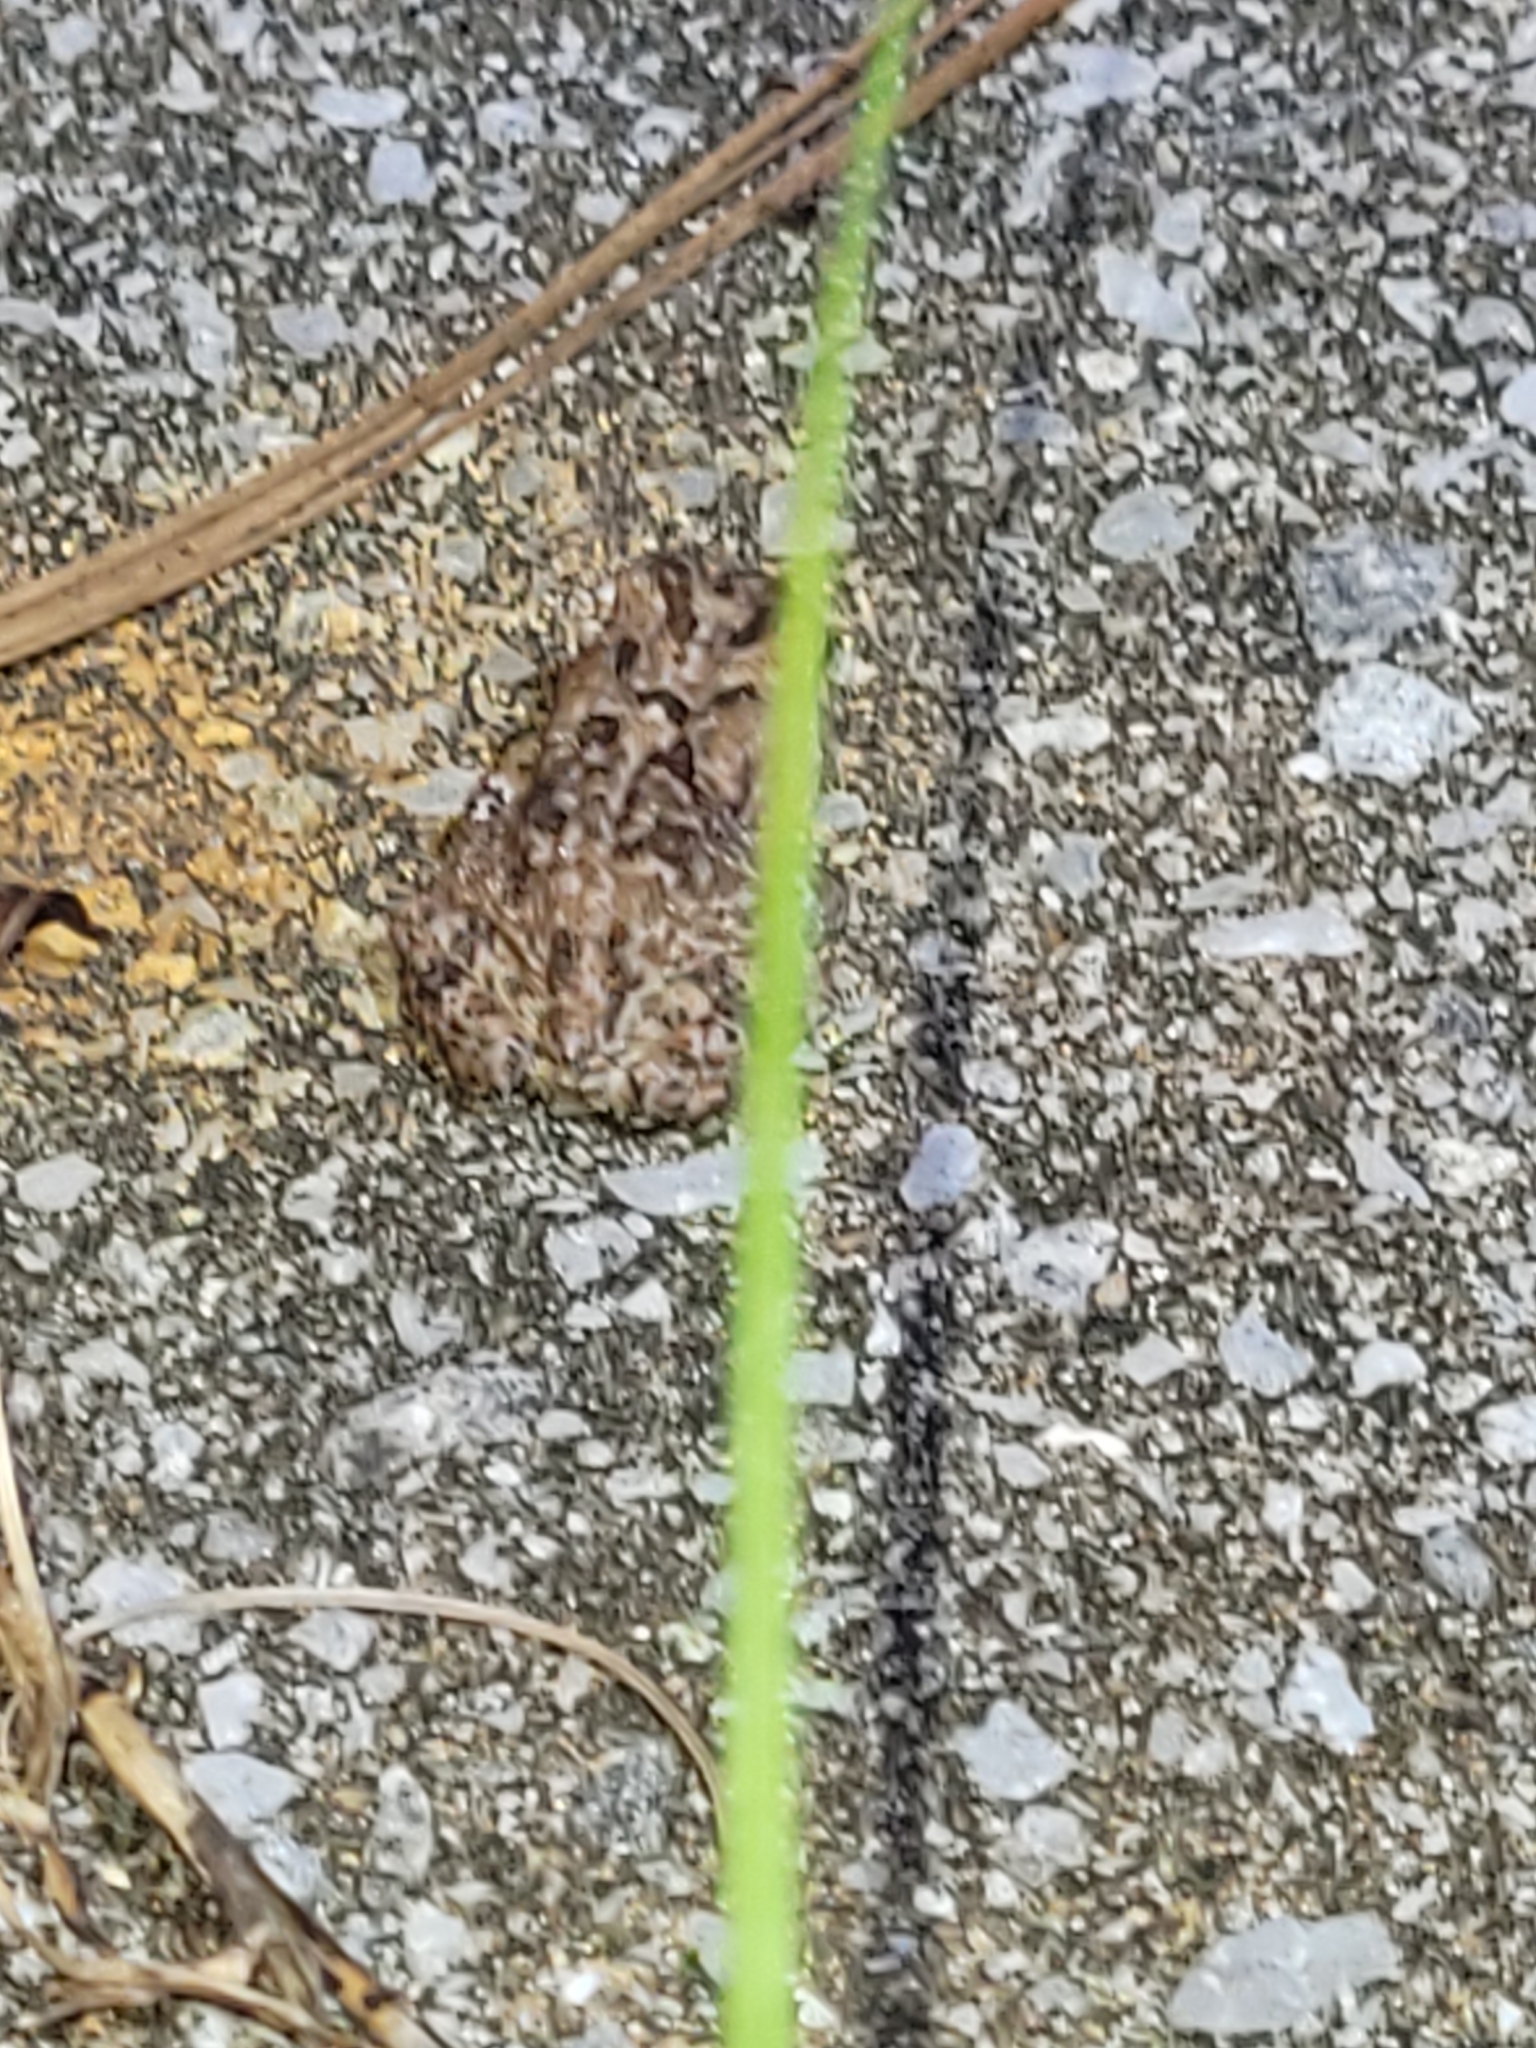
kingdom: Animalia
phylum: Chordata
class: Amphibia
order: Anura
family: Bufonidae
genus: Anaxyrus
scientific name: Anaxyrus terrestris
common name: Southern toad
